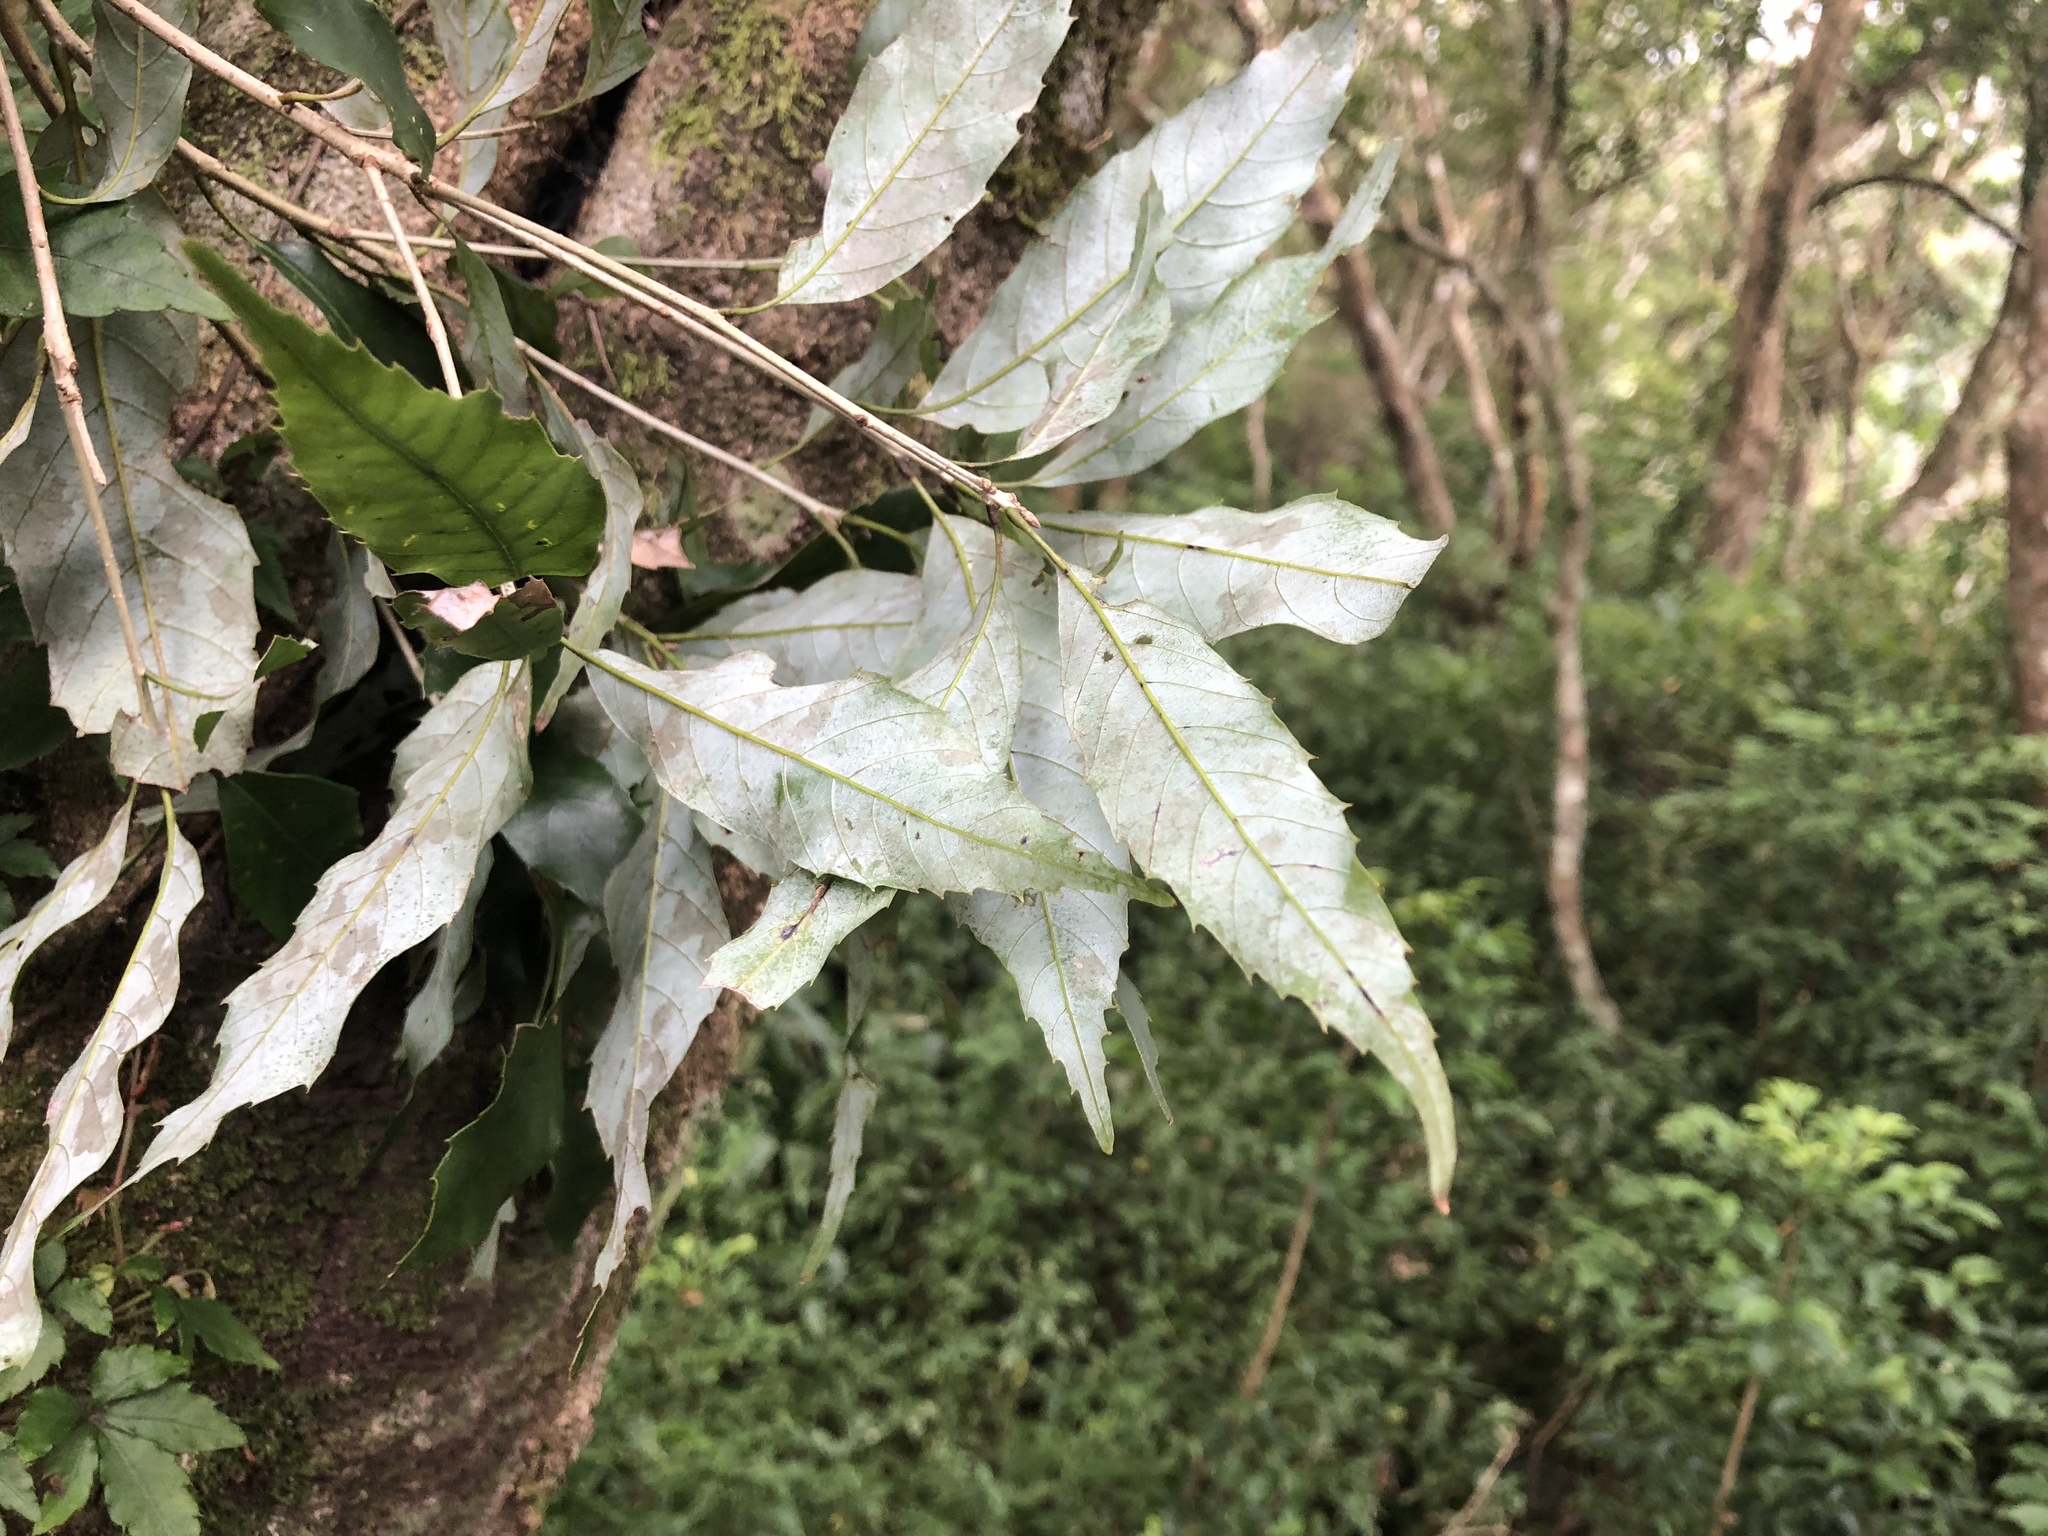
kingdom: Plantae
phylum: Tracheophyta
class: Magnoliopsida
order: Fagales
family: Fagaceae
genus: Quercus
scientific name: Quercus stenophylloides
